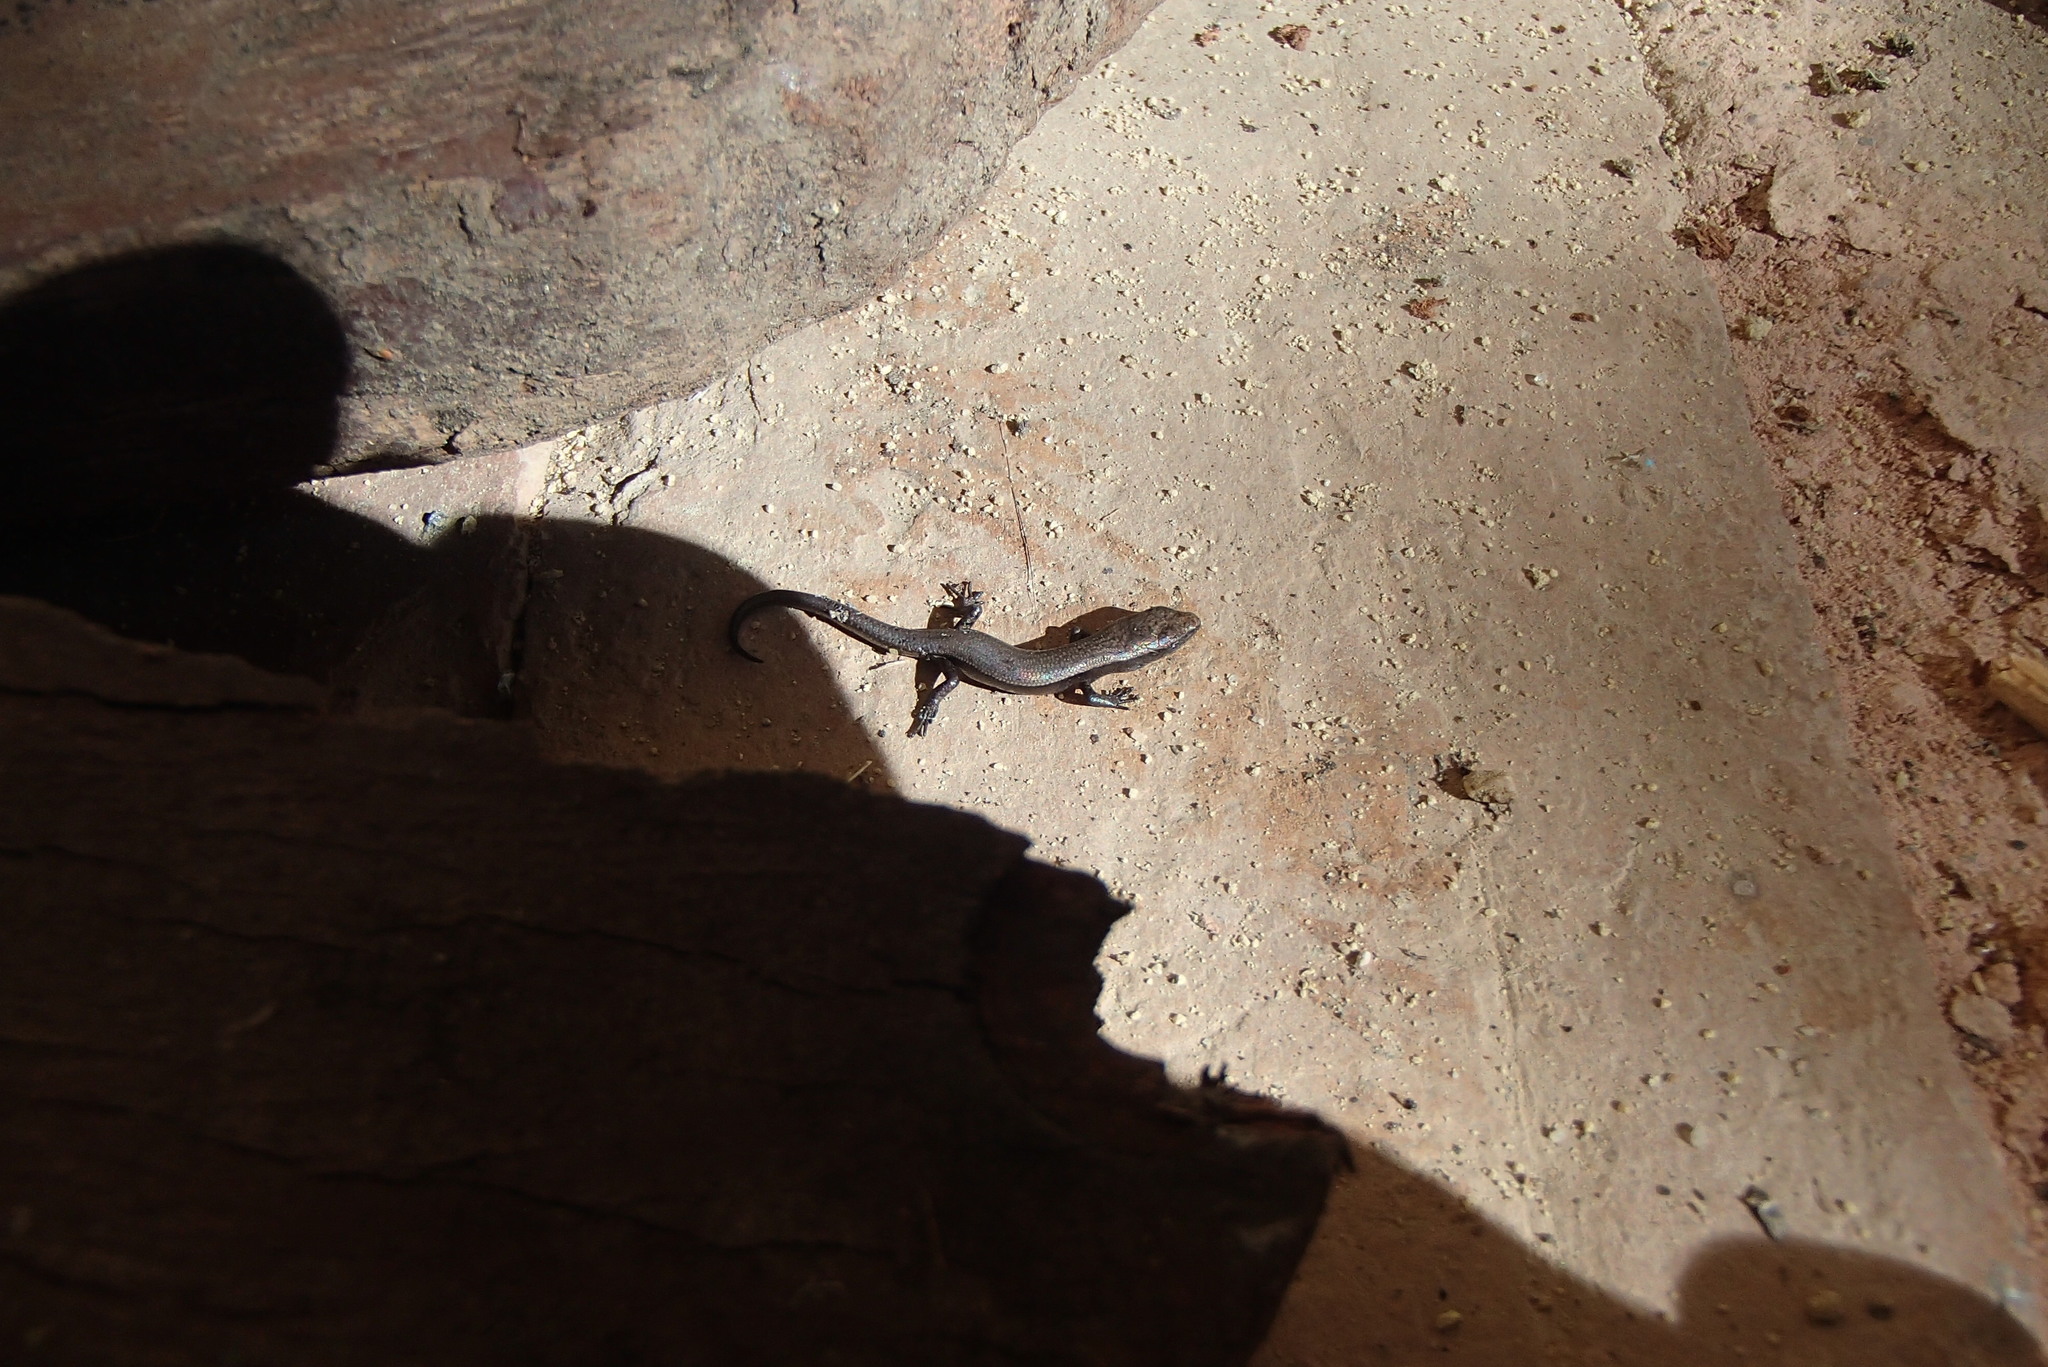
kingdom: Animalia
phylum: Chordata
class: Squamata
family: Scincidae
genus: Lampropholis
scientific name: Lampropholis delicata
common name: Plague skink
